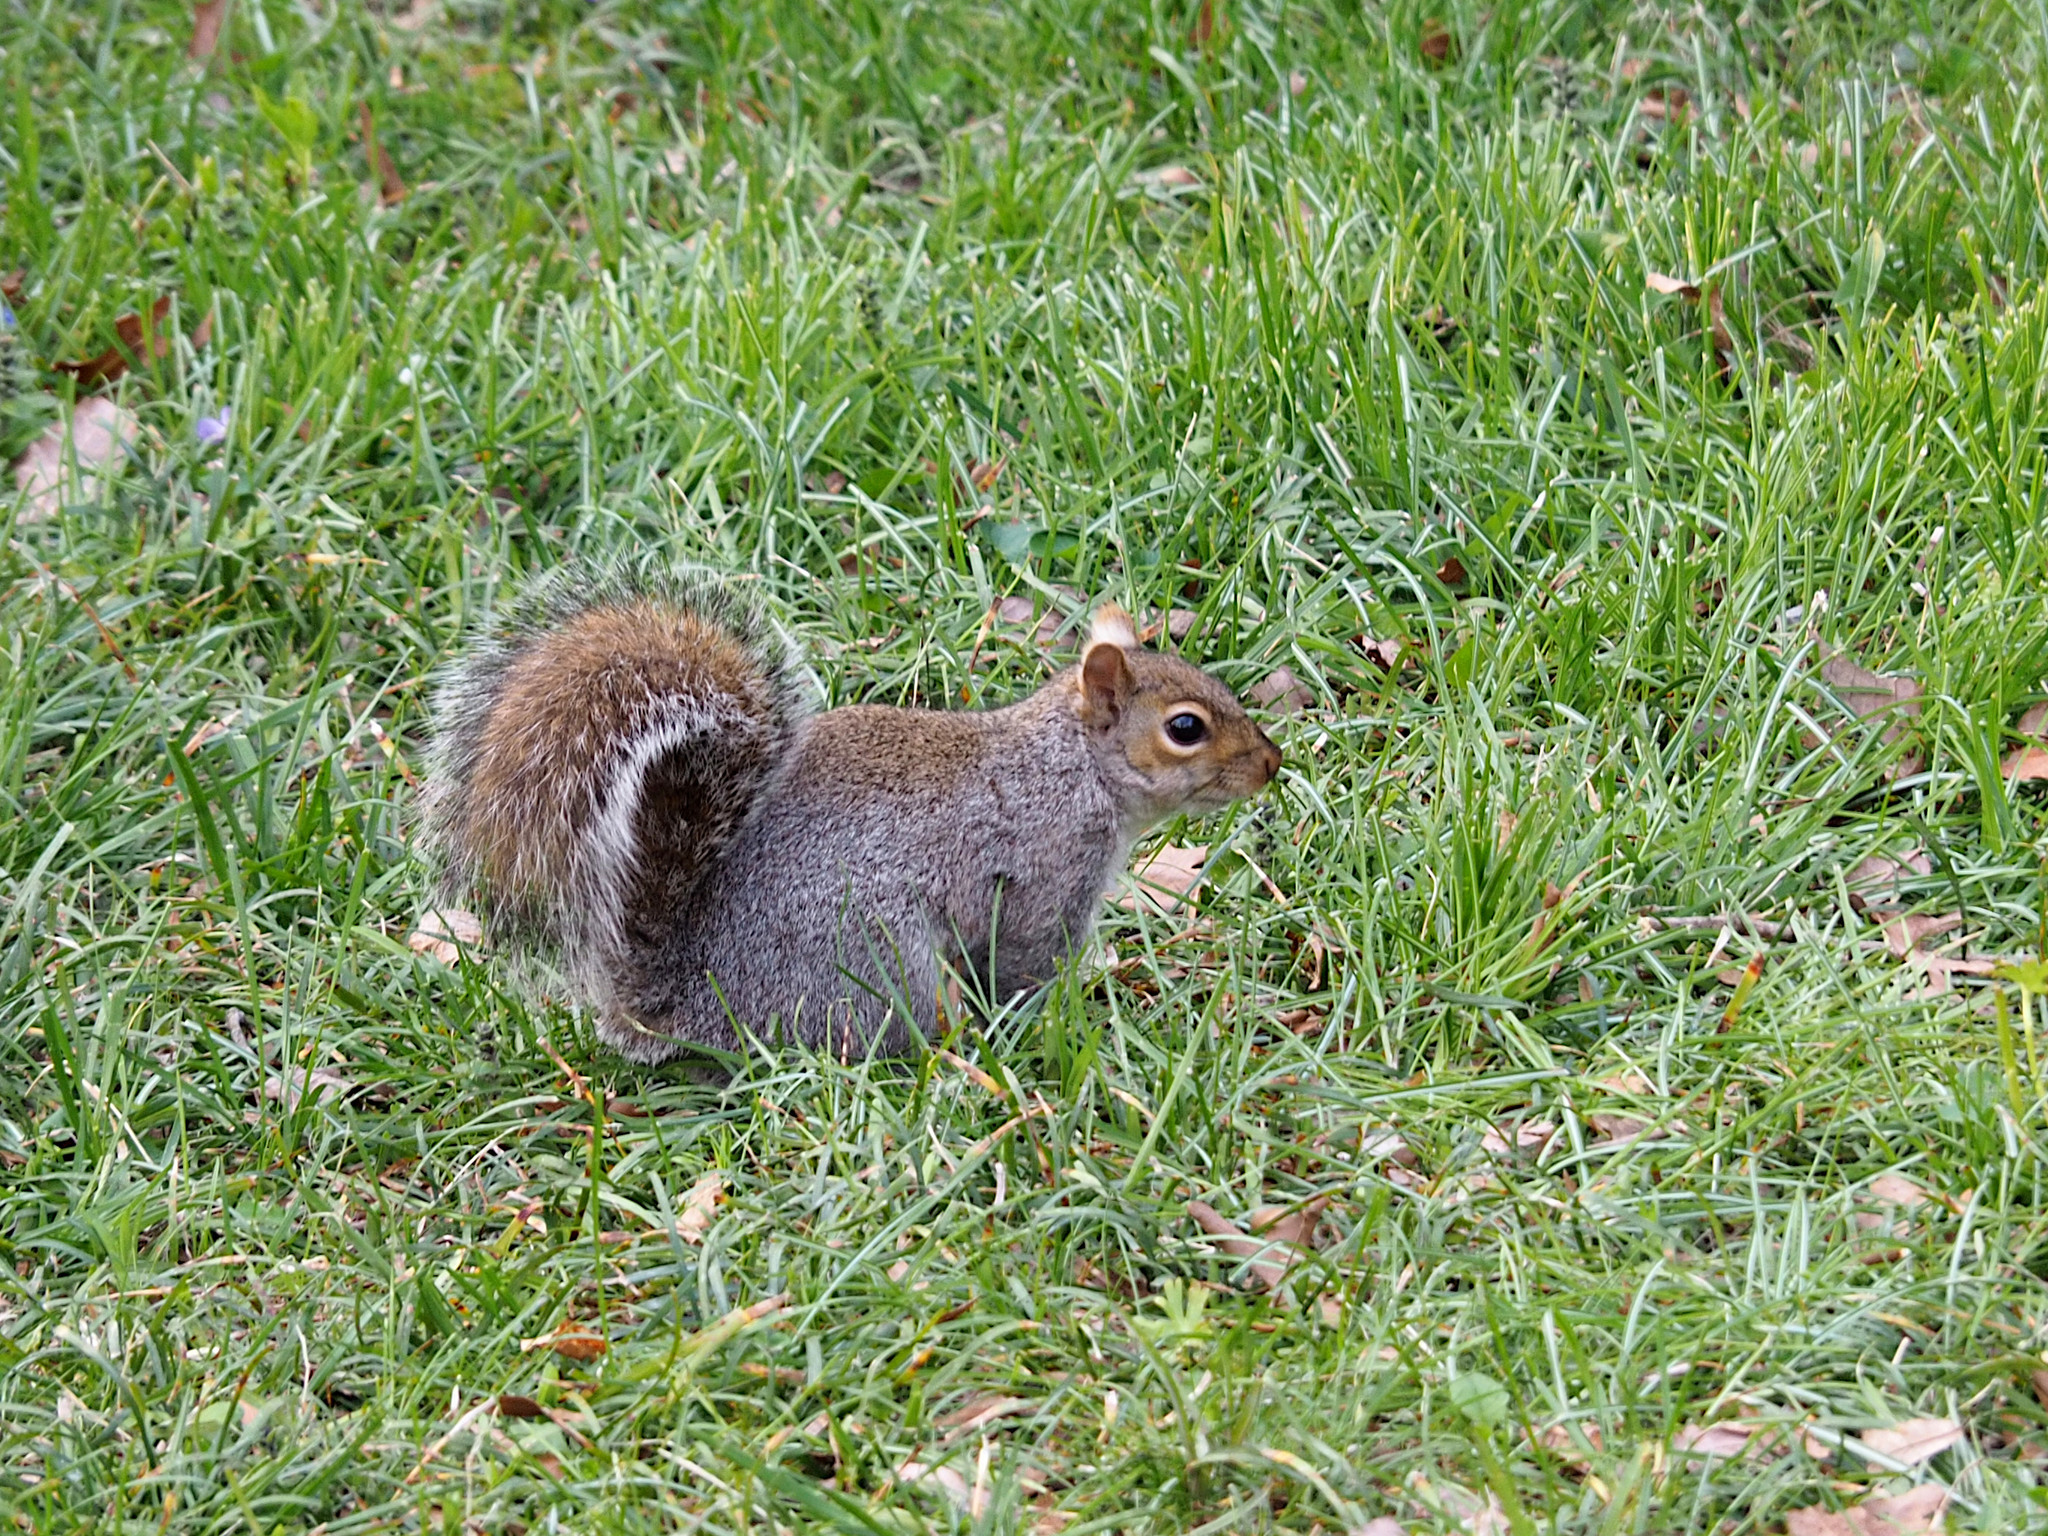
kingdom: Animalia
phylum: Chordata
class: Mammalia
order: Rodentia
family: Sciuridae
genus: Sciurus
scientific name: Sciurus carolinensis
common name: Eastern gray squirrel
